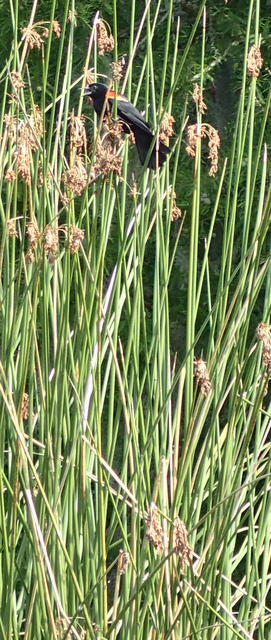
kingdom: Animalia
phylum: Chordata
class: Aves
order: Passeriformes
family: Icteridae
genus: Agelaius
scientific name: Agelaius phoeniceus
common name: Red-winged blackbird
